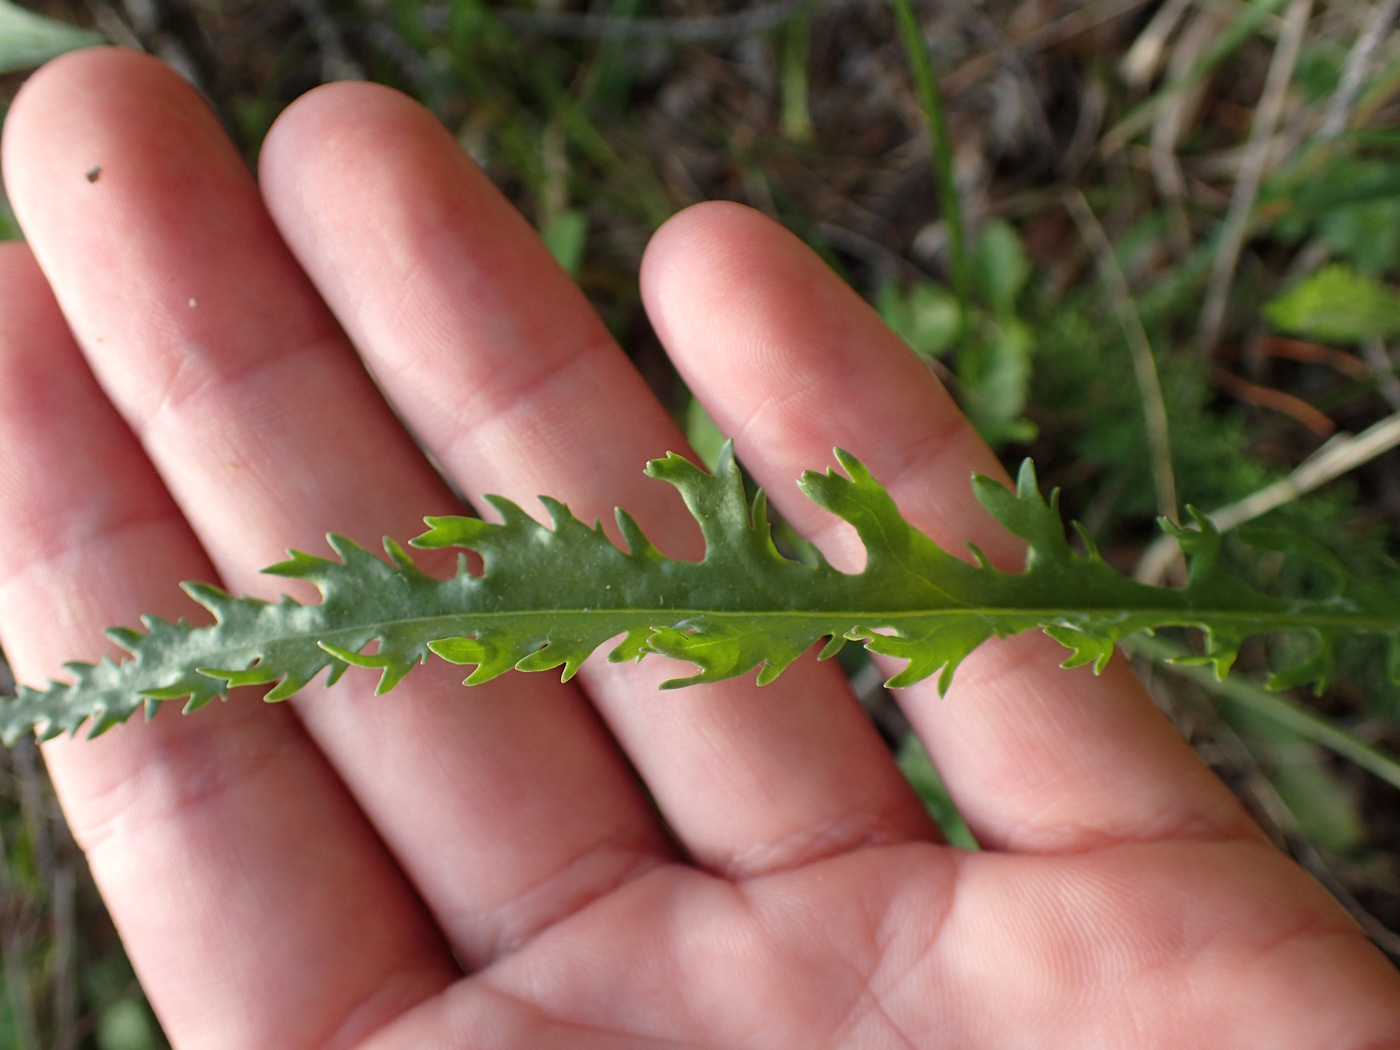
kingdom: Plantae
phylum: Tracheophyta
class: Magnoliopsida
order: Asterales
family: Asteraceae
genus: Packera
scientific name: Packera anonyma
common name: Small ragwort
